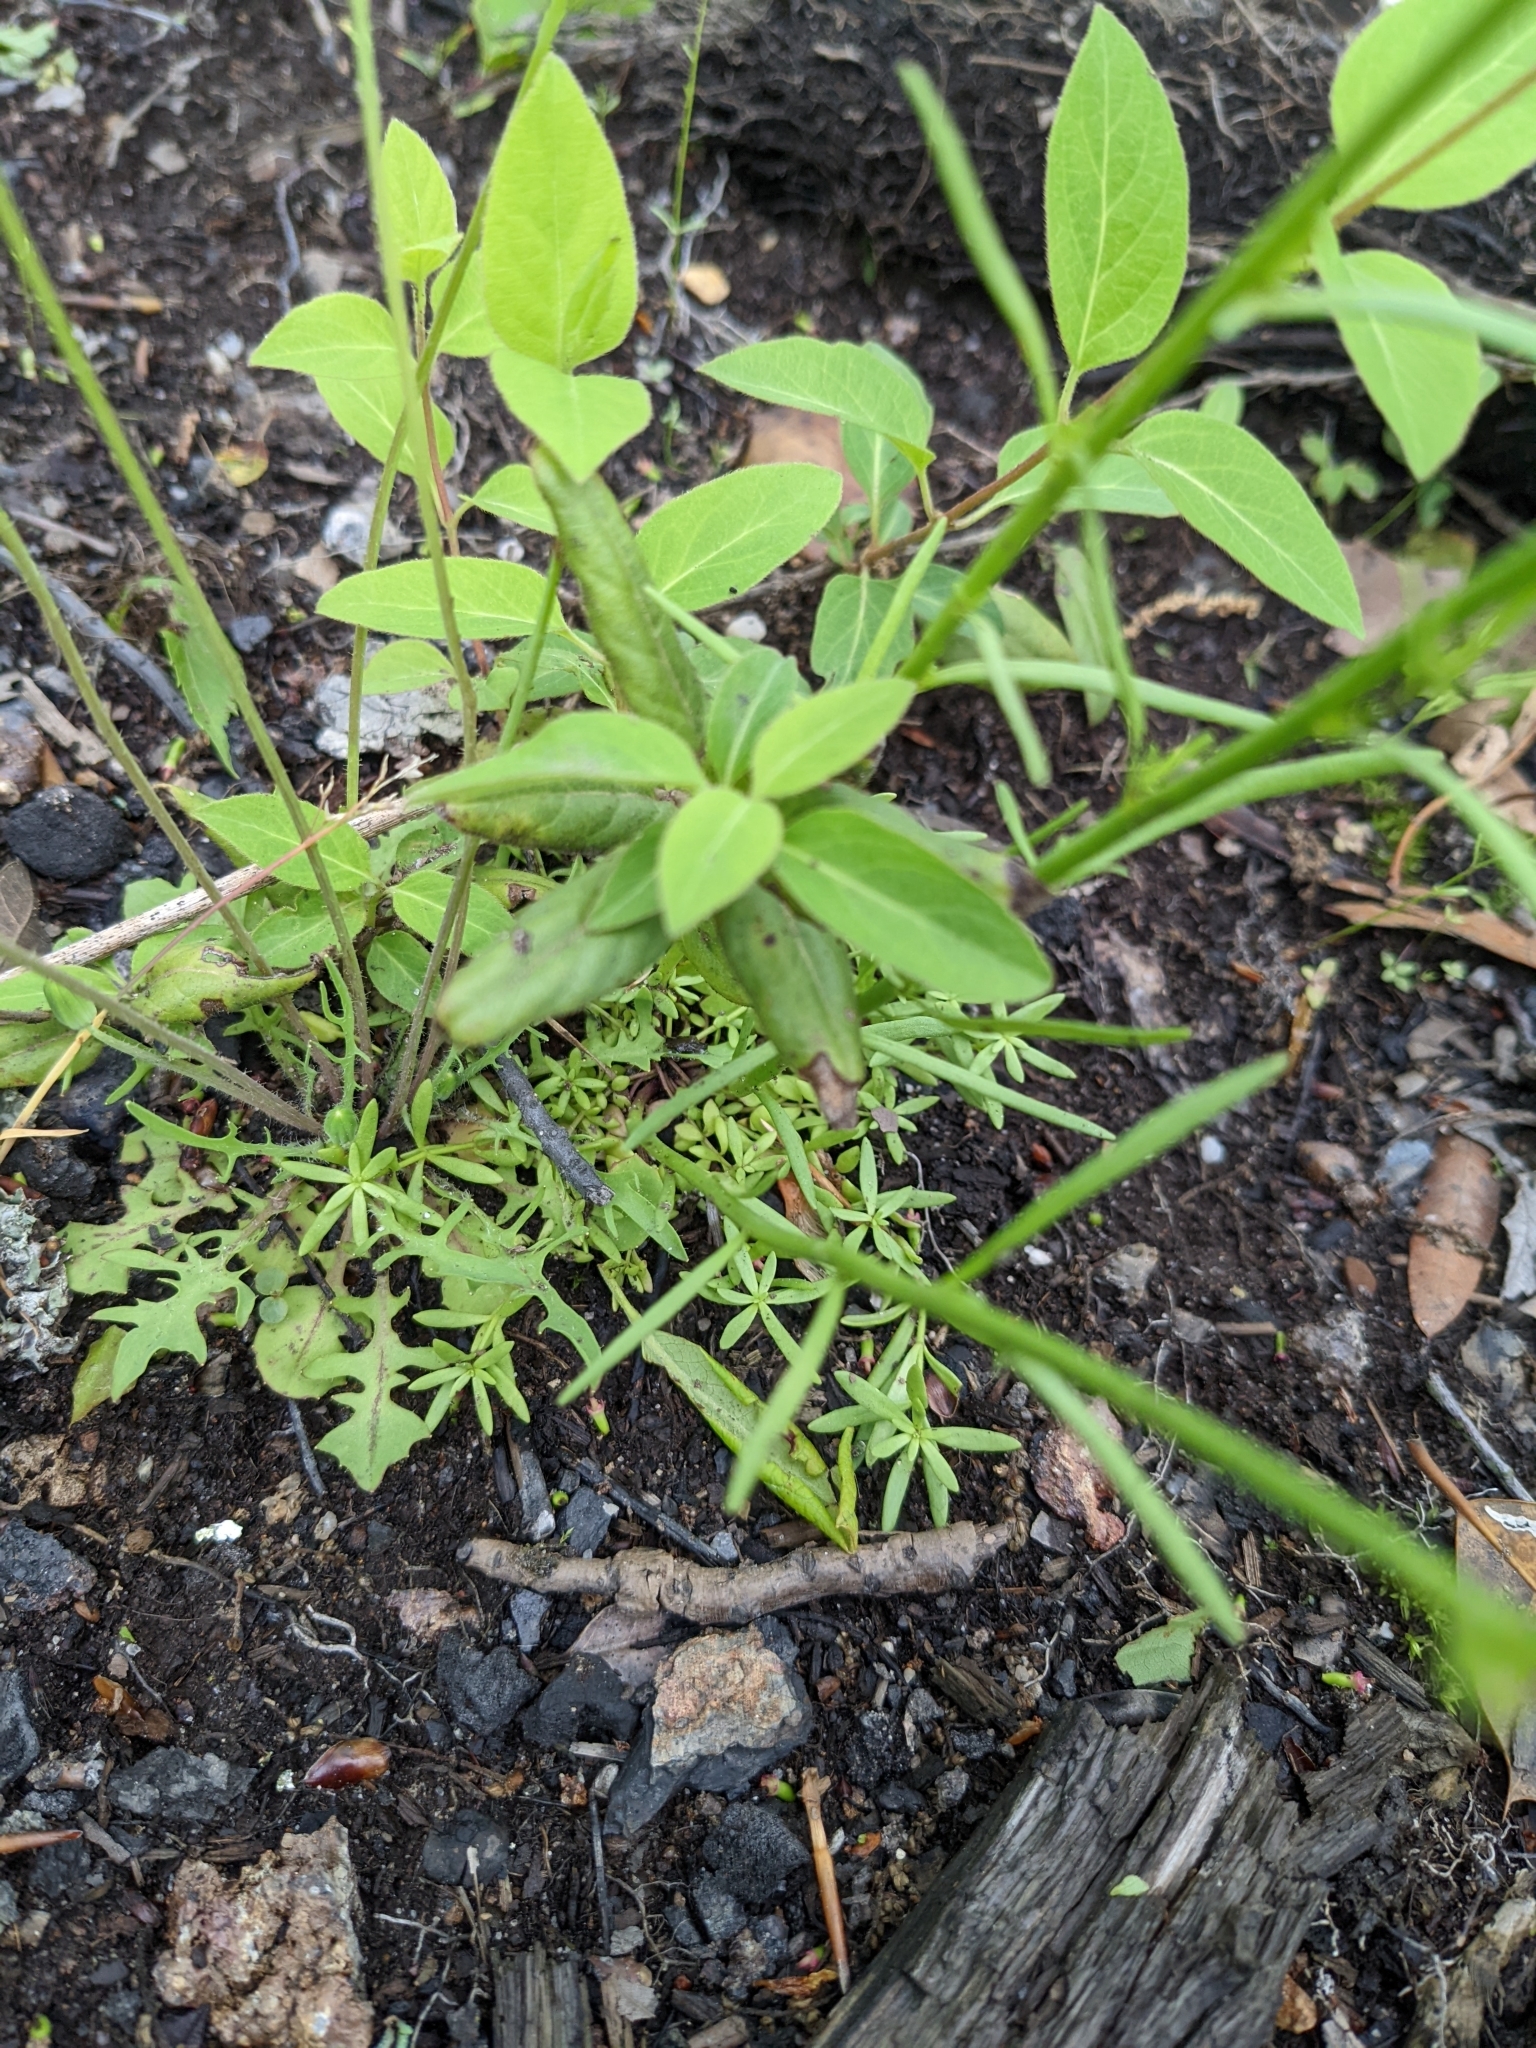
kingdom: Plantae
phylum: Tracheophyta
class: Magnoliopsida
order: Lamiales
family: Plantaginaceae
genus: Nuttallanthus
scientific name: Nuttallanthus canadensis
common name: Blue toadflax
